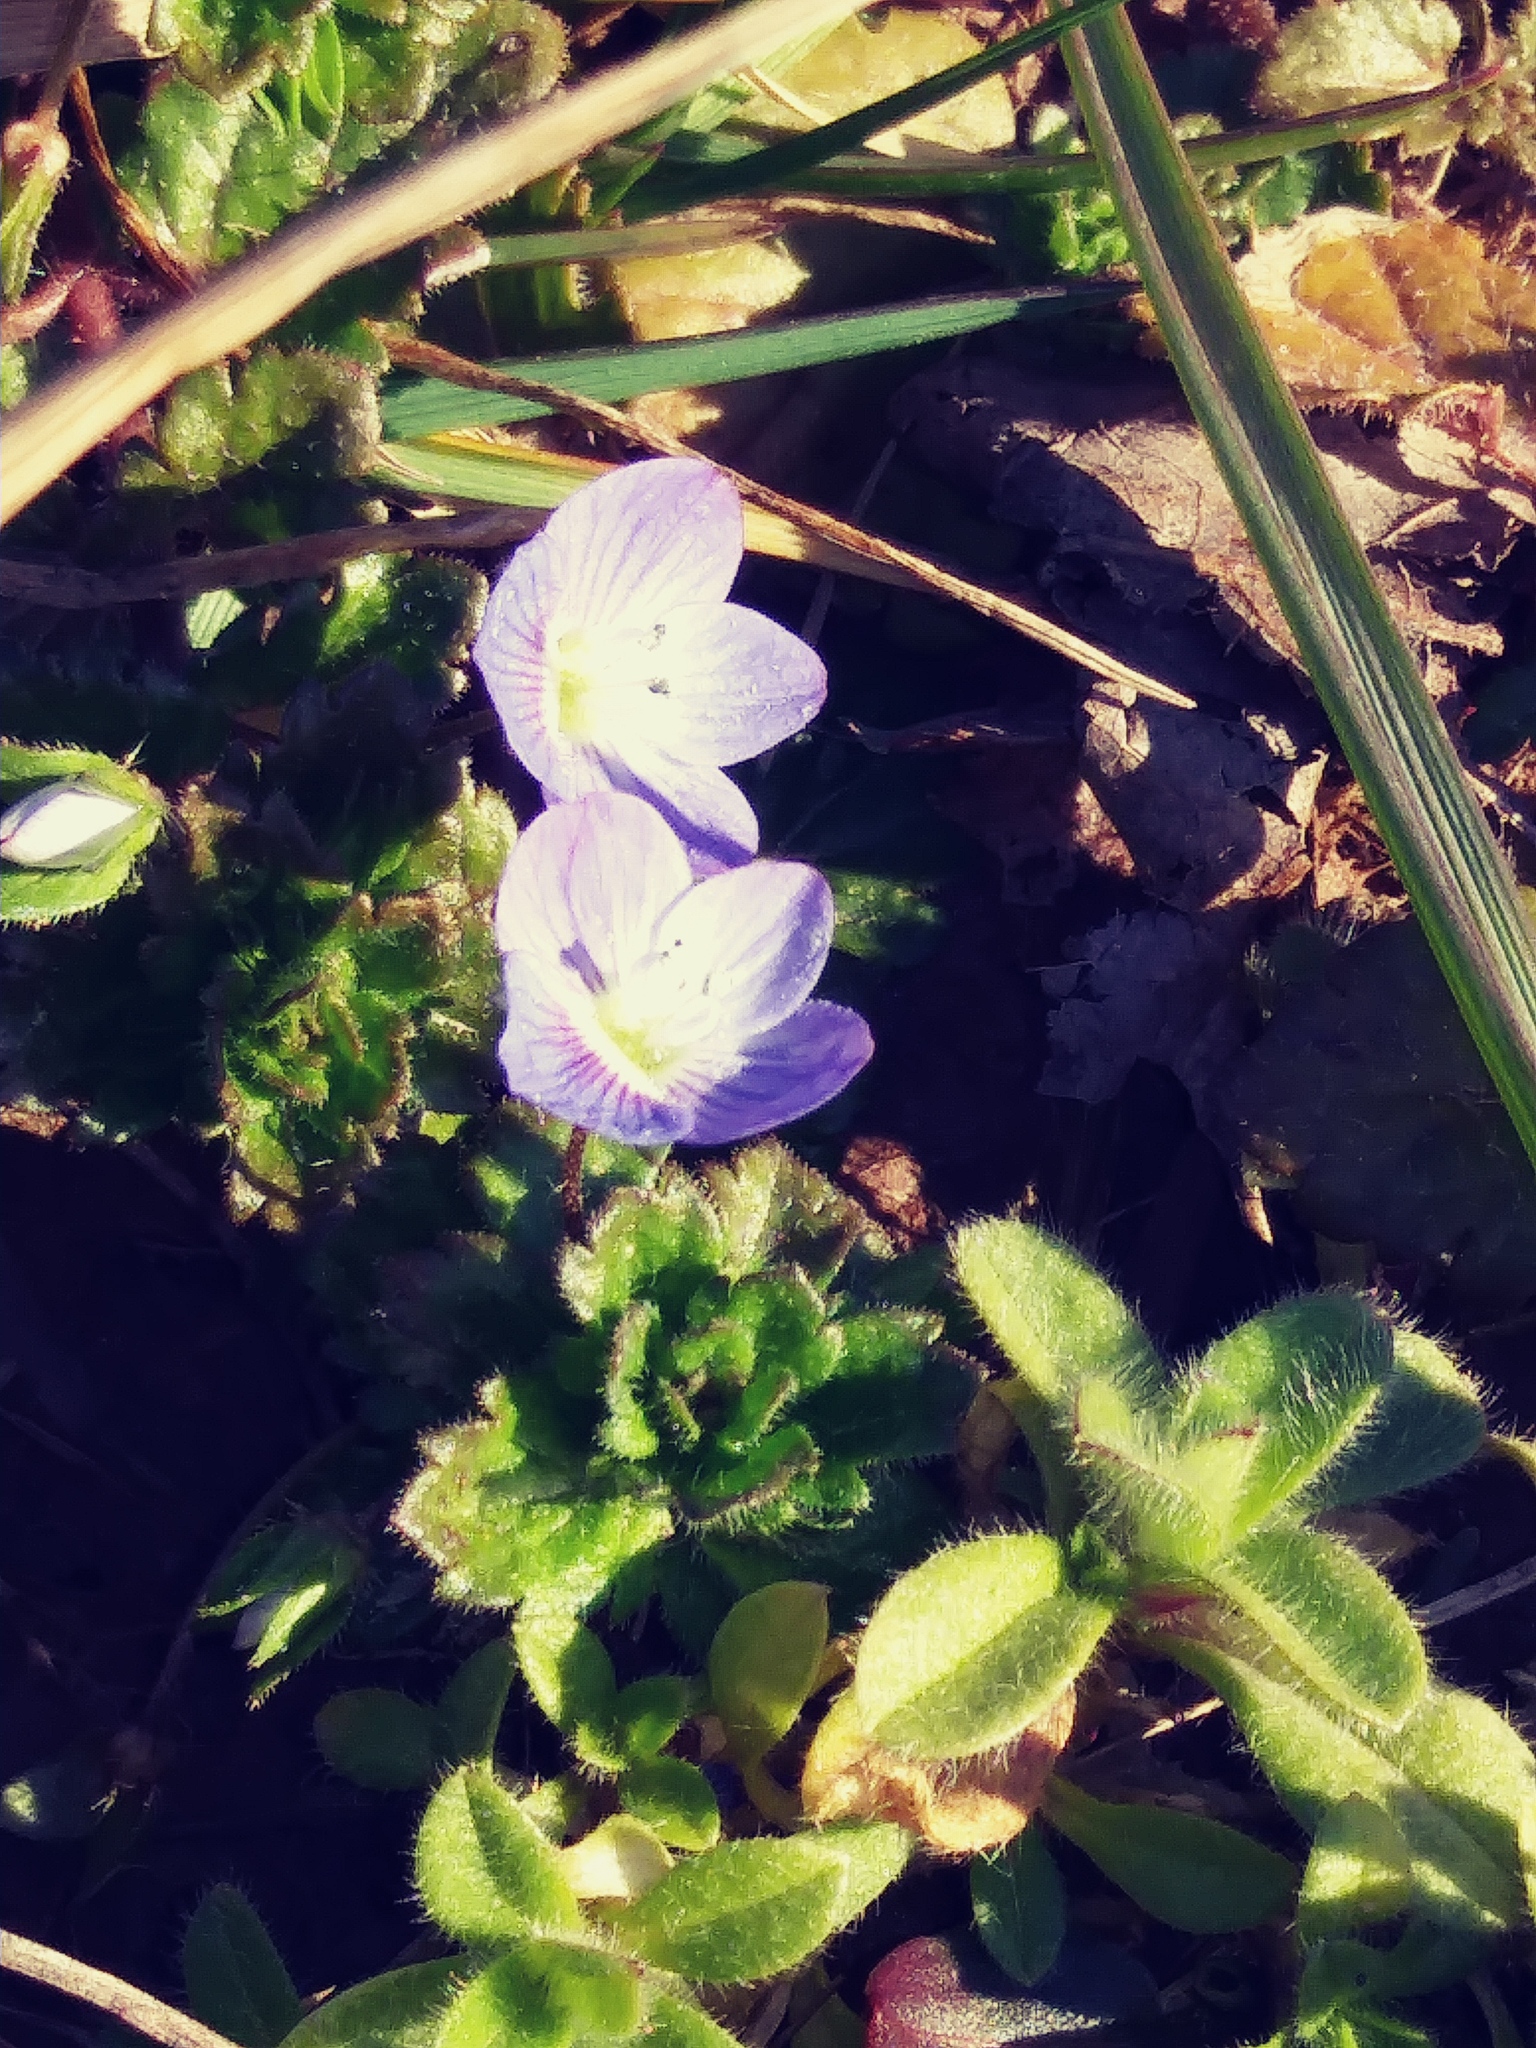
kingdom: Plantae
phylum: Tracheophyta
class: Magnoliopsida
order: Lamiales
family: Plantaginaceae
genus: Veronica
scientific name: Veronica persica
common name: Common field-speedwell
